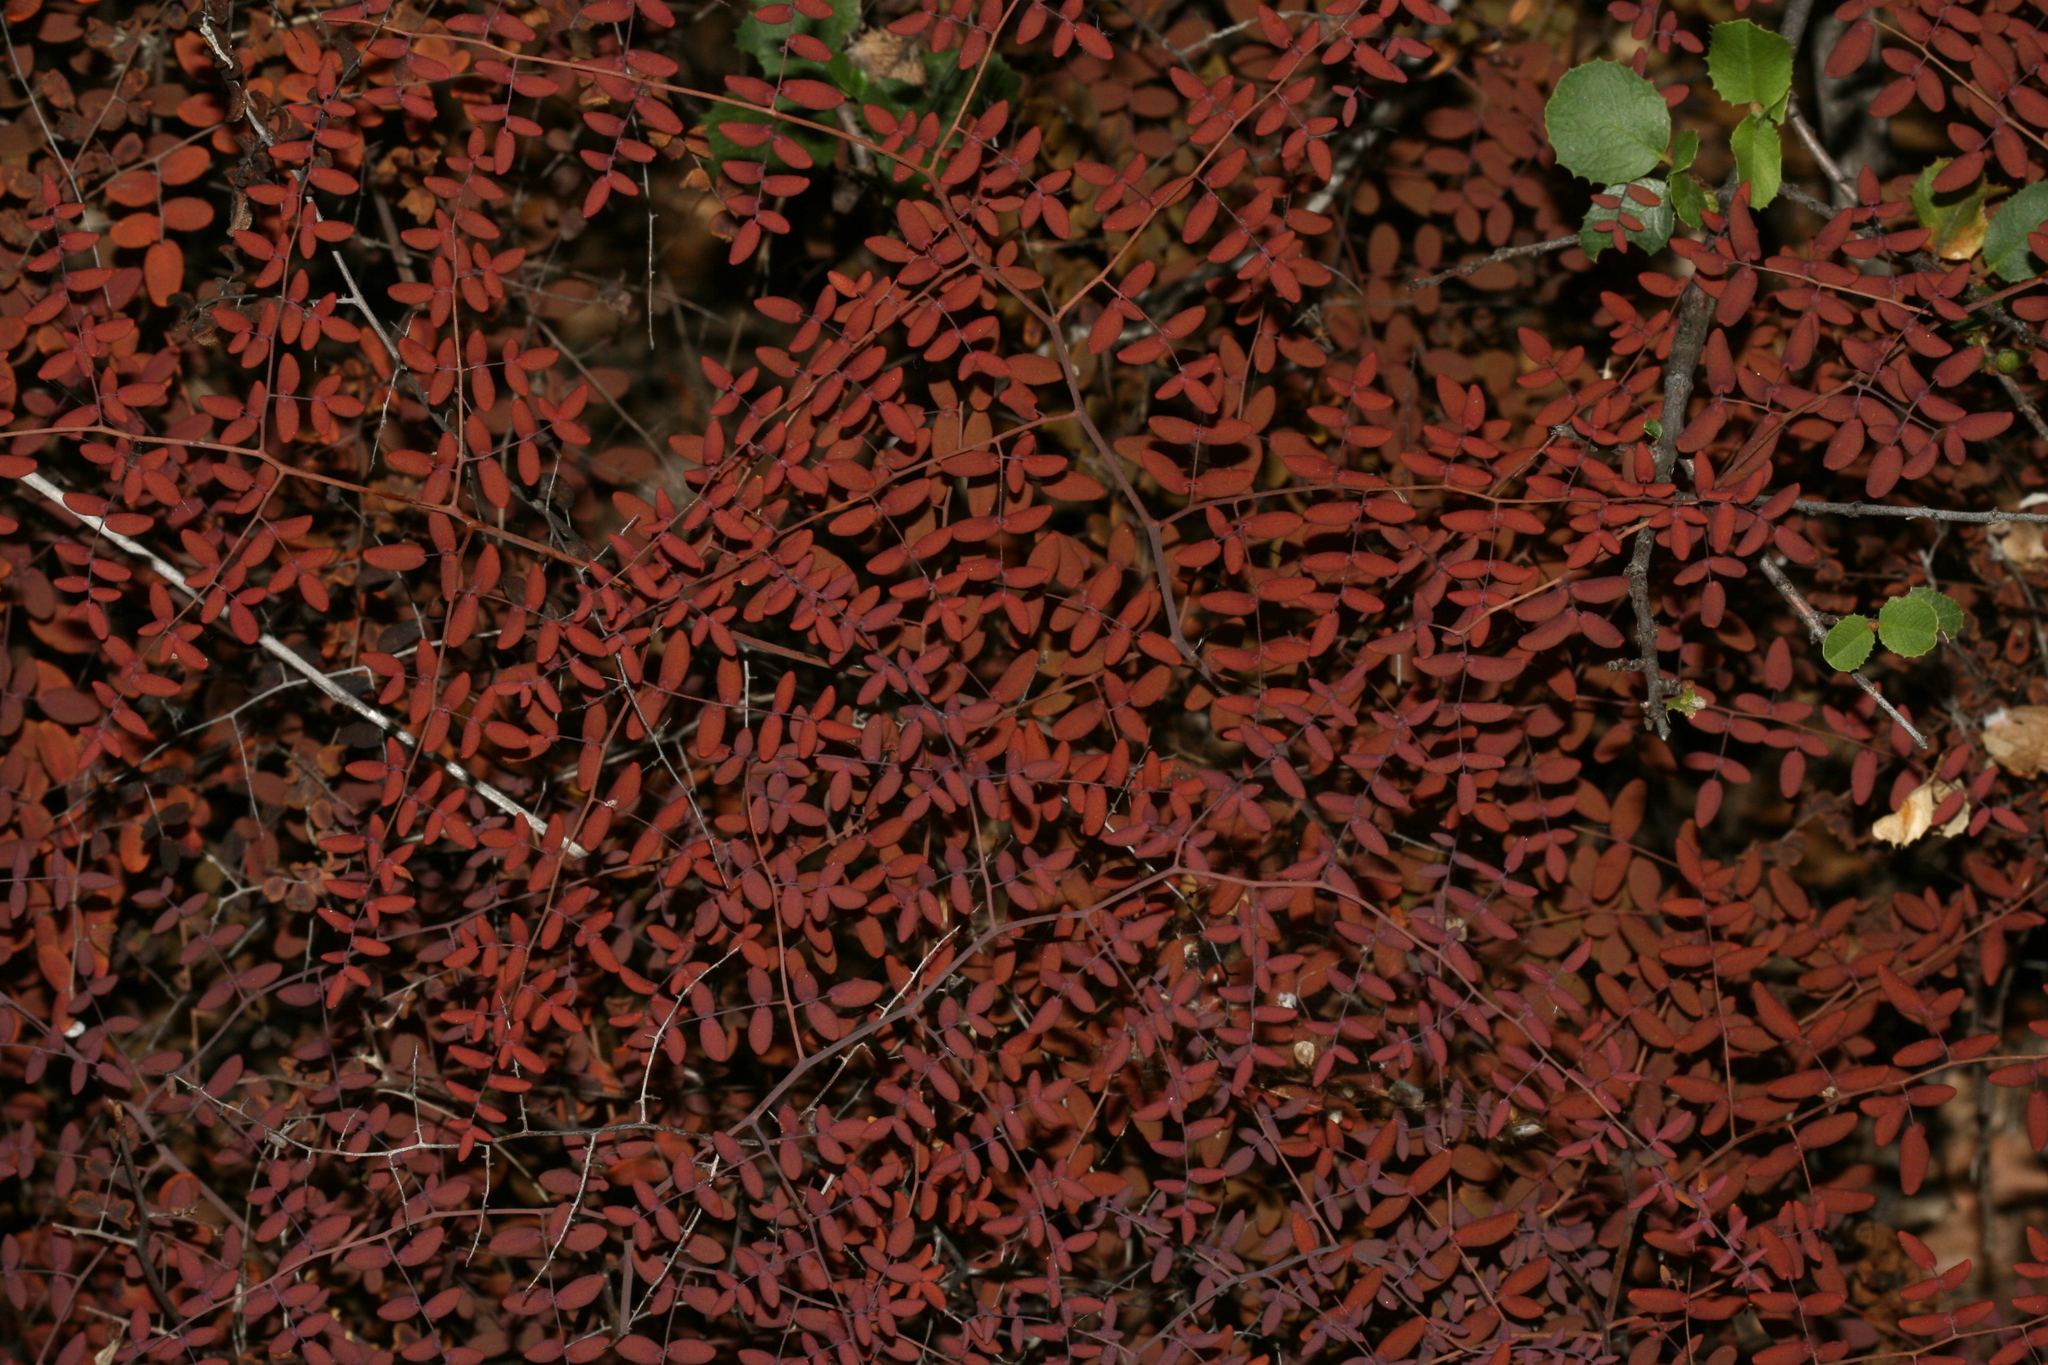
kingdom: Plantae
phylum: Tracheophyta
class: Polypodiopsida
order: Polypodiales
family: Pteridaceae
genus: Pellaea
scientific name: Pellaea andromedifolia
